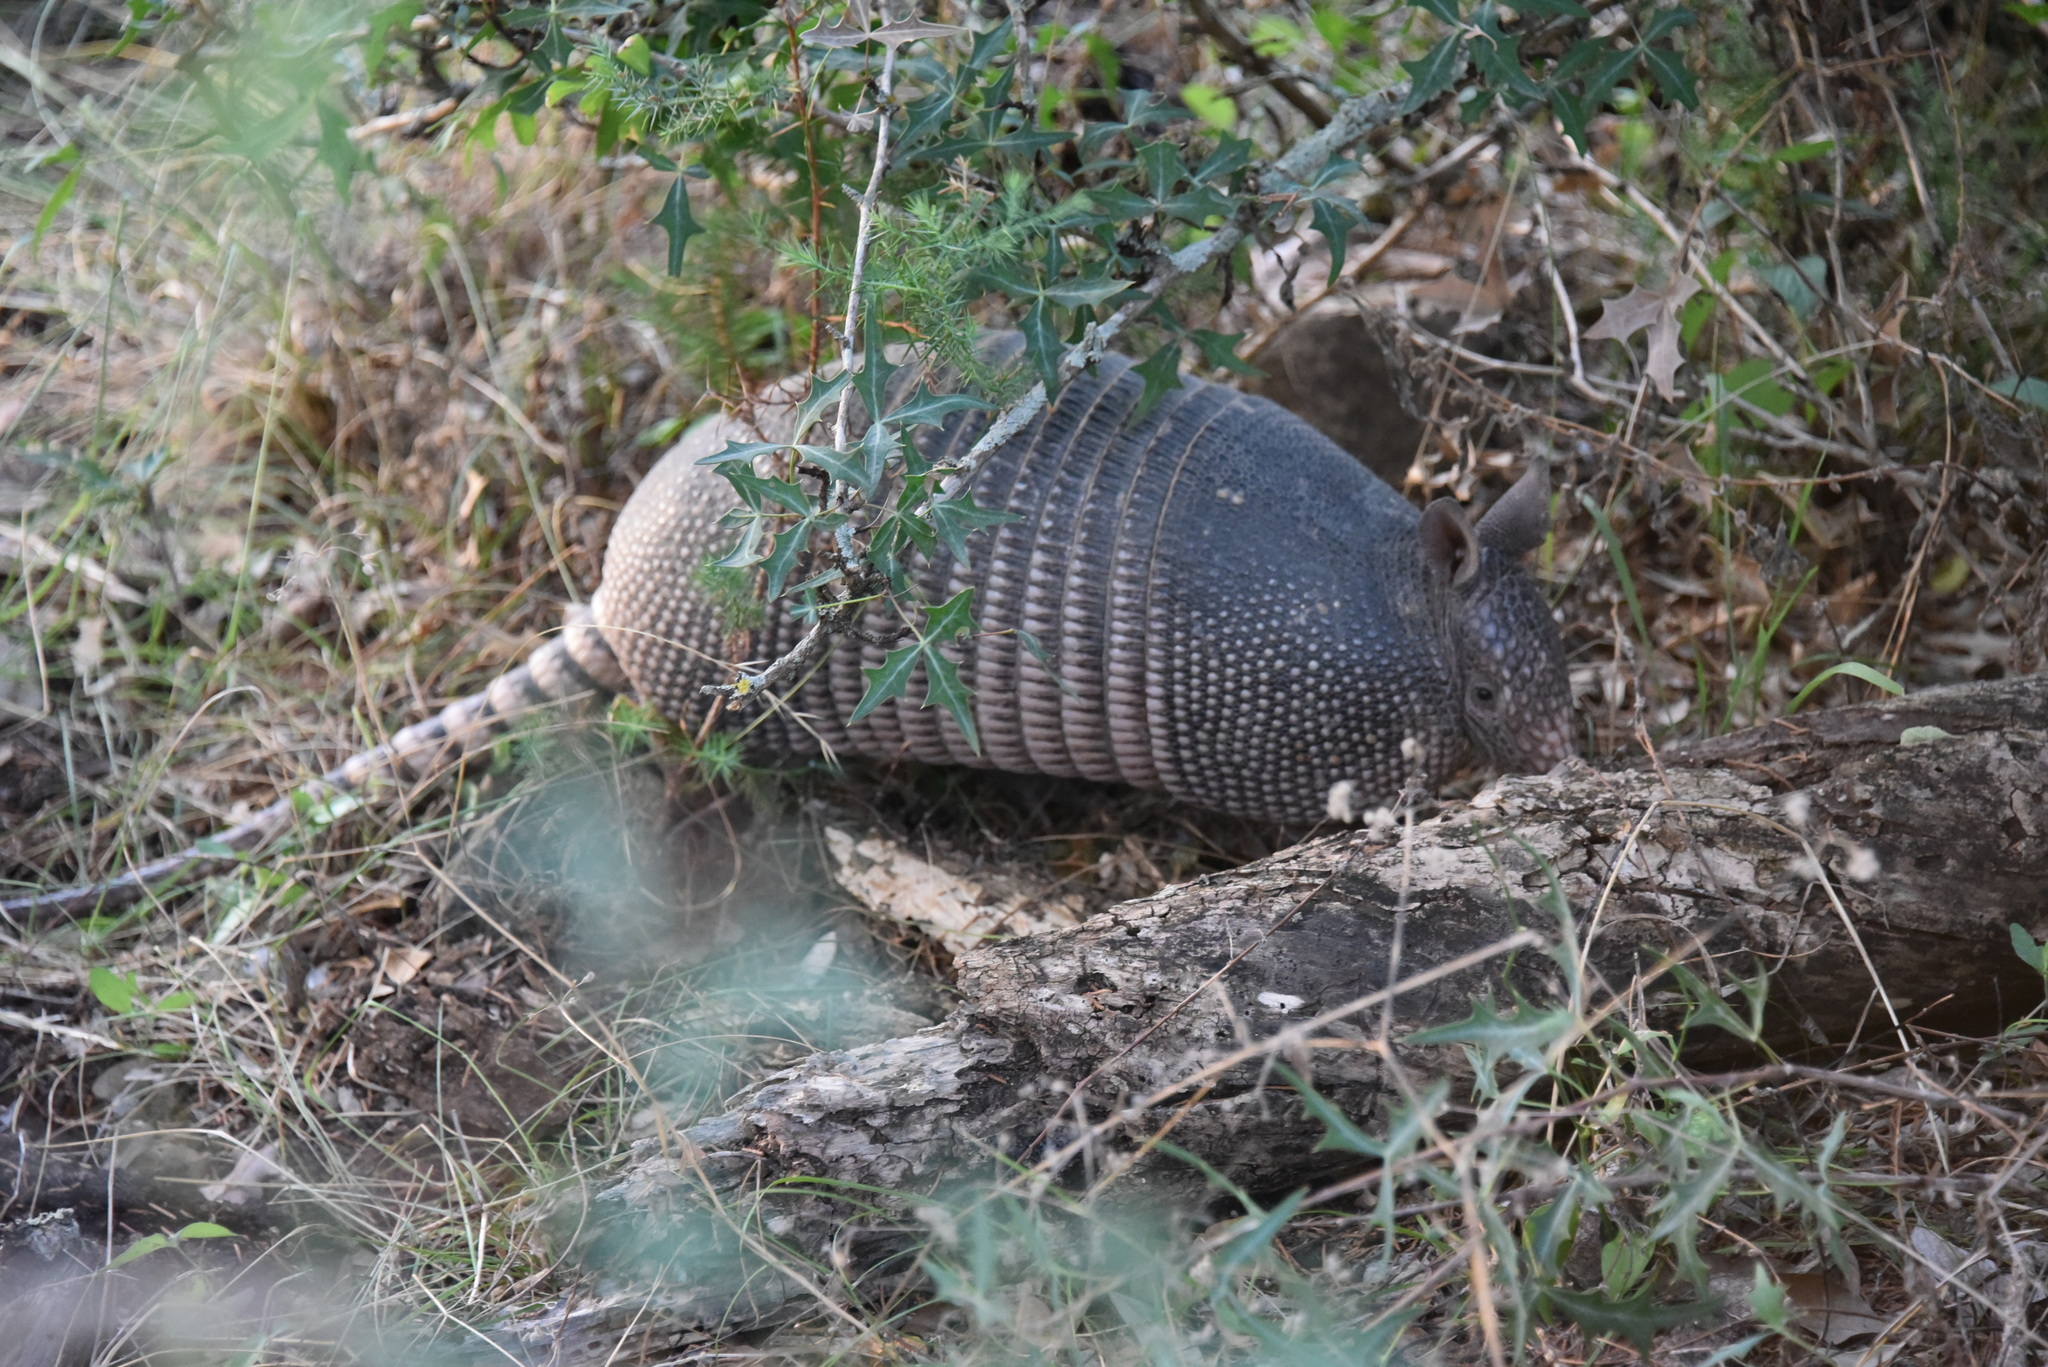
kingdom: Animalia
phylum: Chordata
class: Mammalia
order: Cingulata
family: Dasypodidae
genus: Dasypus
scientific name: Dasypus novemcinctus
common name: Nine-banded armadillo
